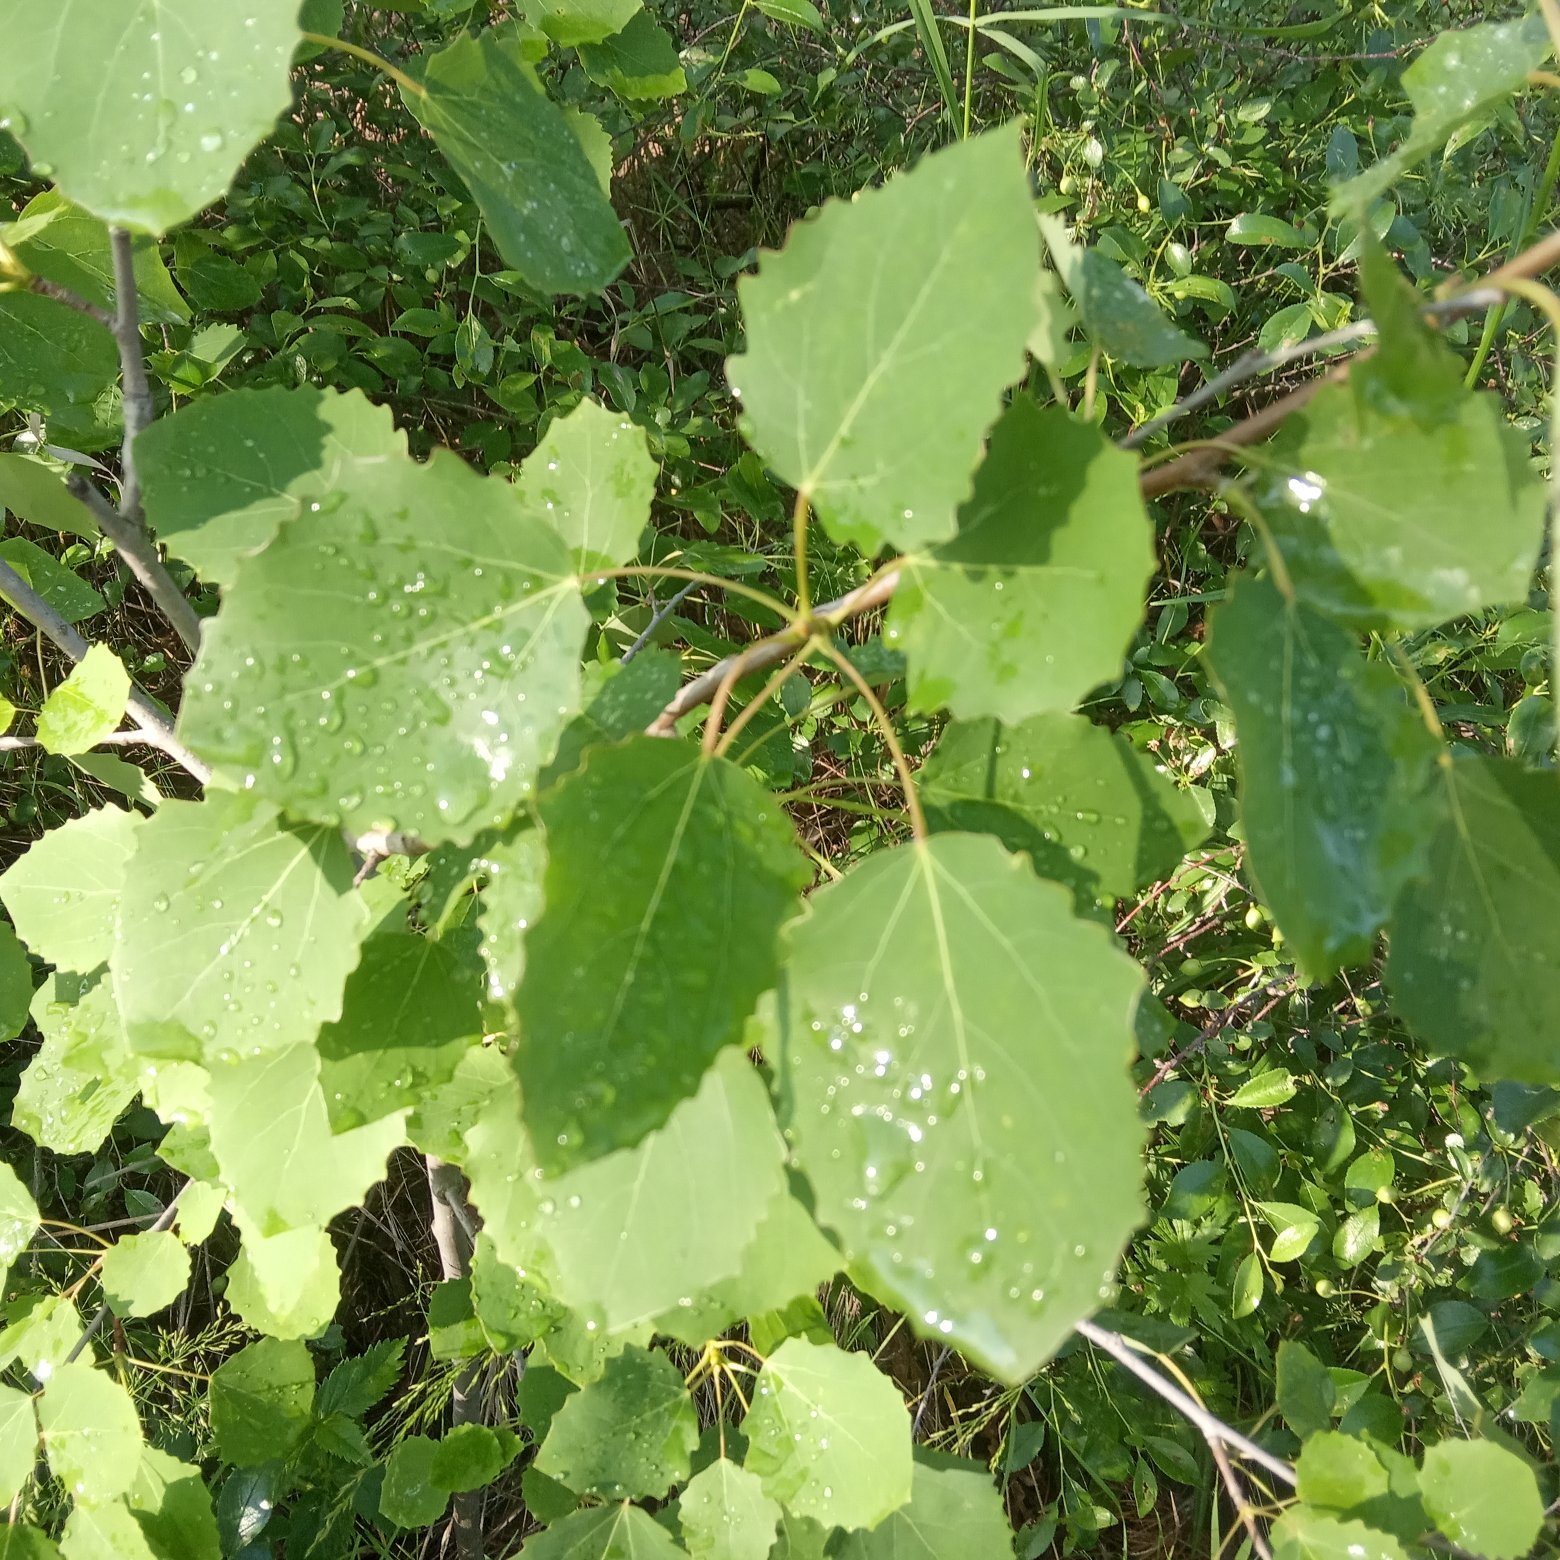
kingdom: Plantae
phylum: Tracheophyta
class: Magnoliopsida
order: Malpighiales
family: Salicaceae
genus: Populus
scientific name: Populus tremula
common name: European aspen
